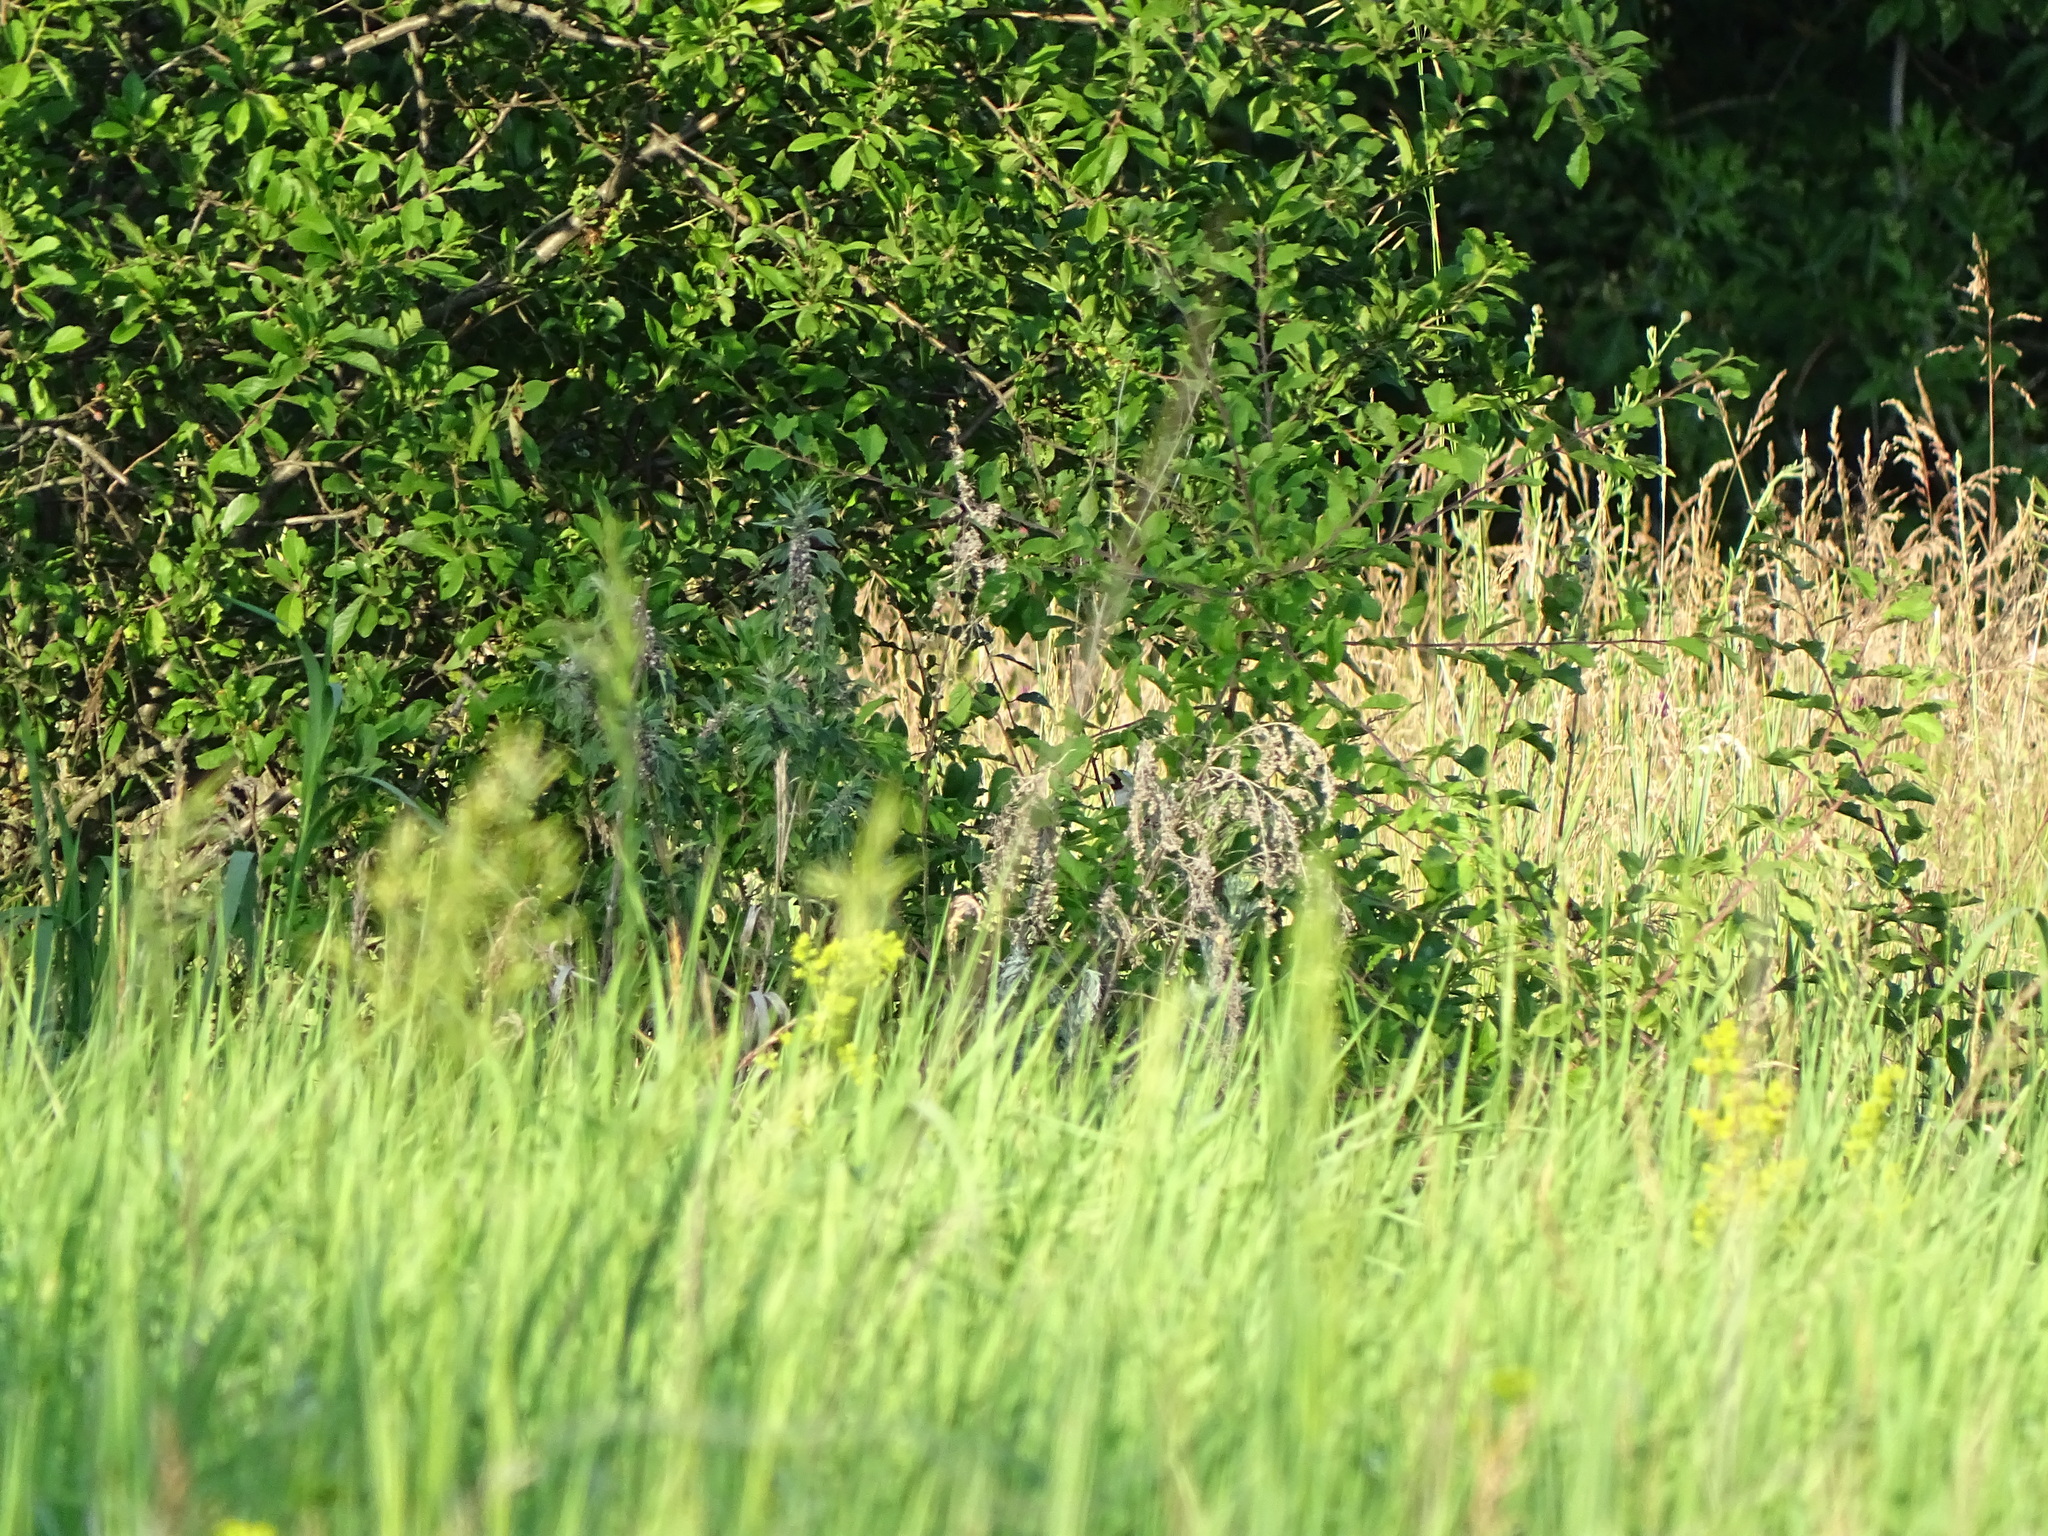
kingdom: Animalia
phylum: Chordata
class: Aves
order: Passeriformes
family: Fringillidae
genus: Carduelis
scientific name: Carduelis carduelis
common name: European goldfinch
